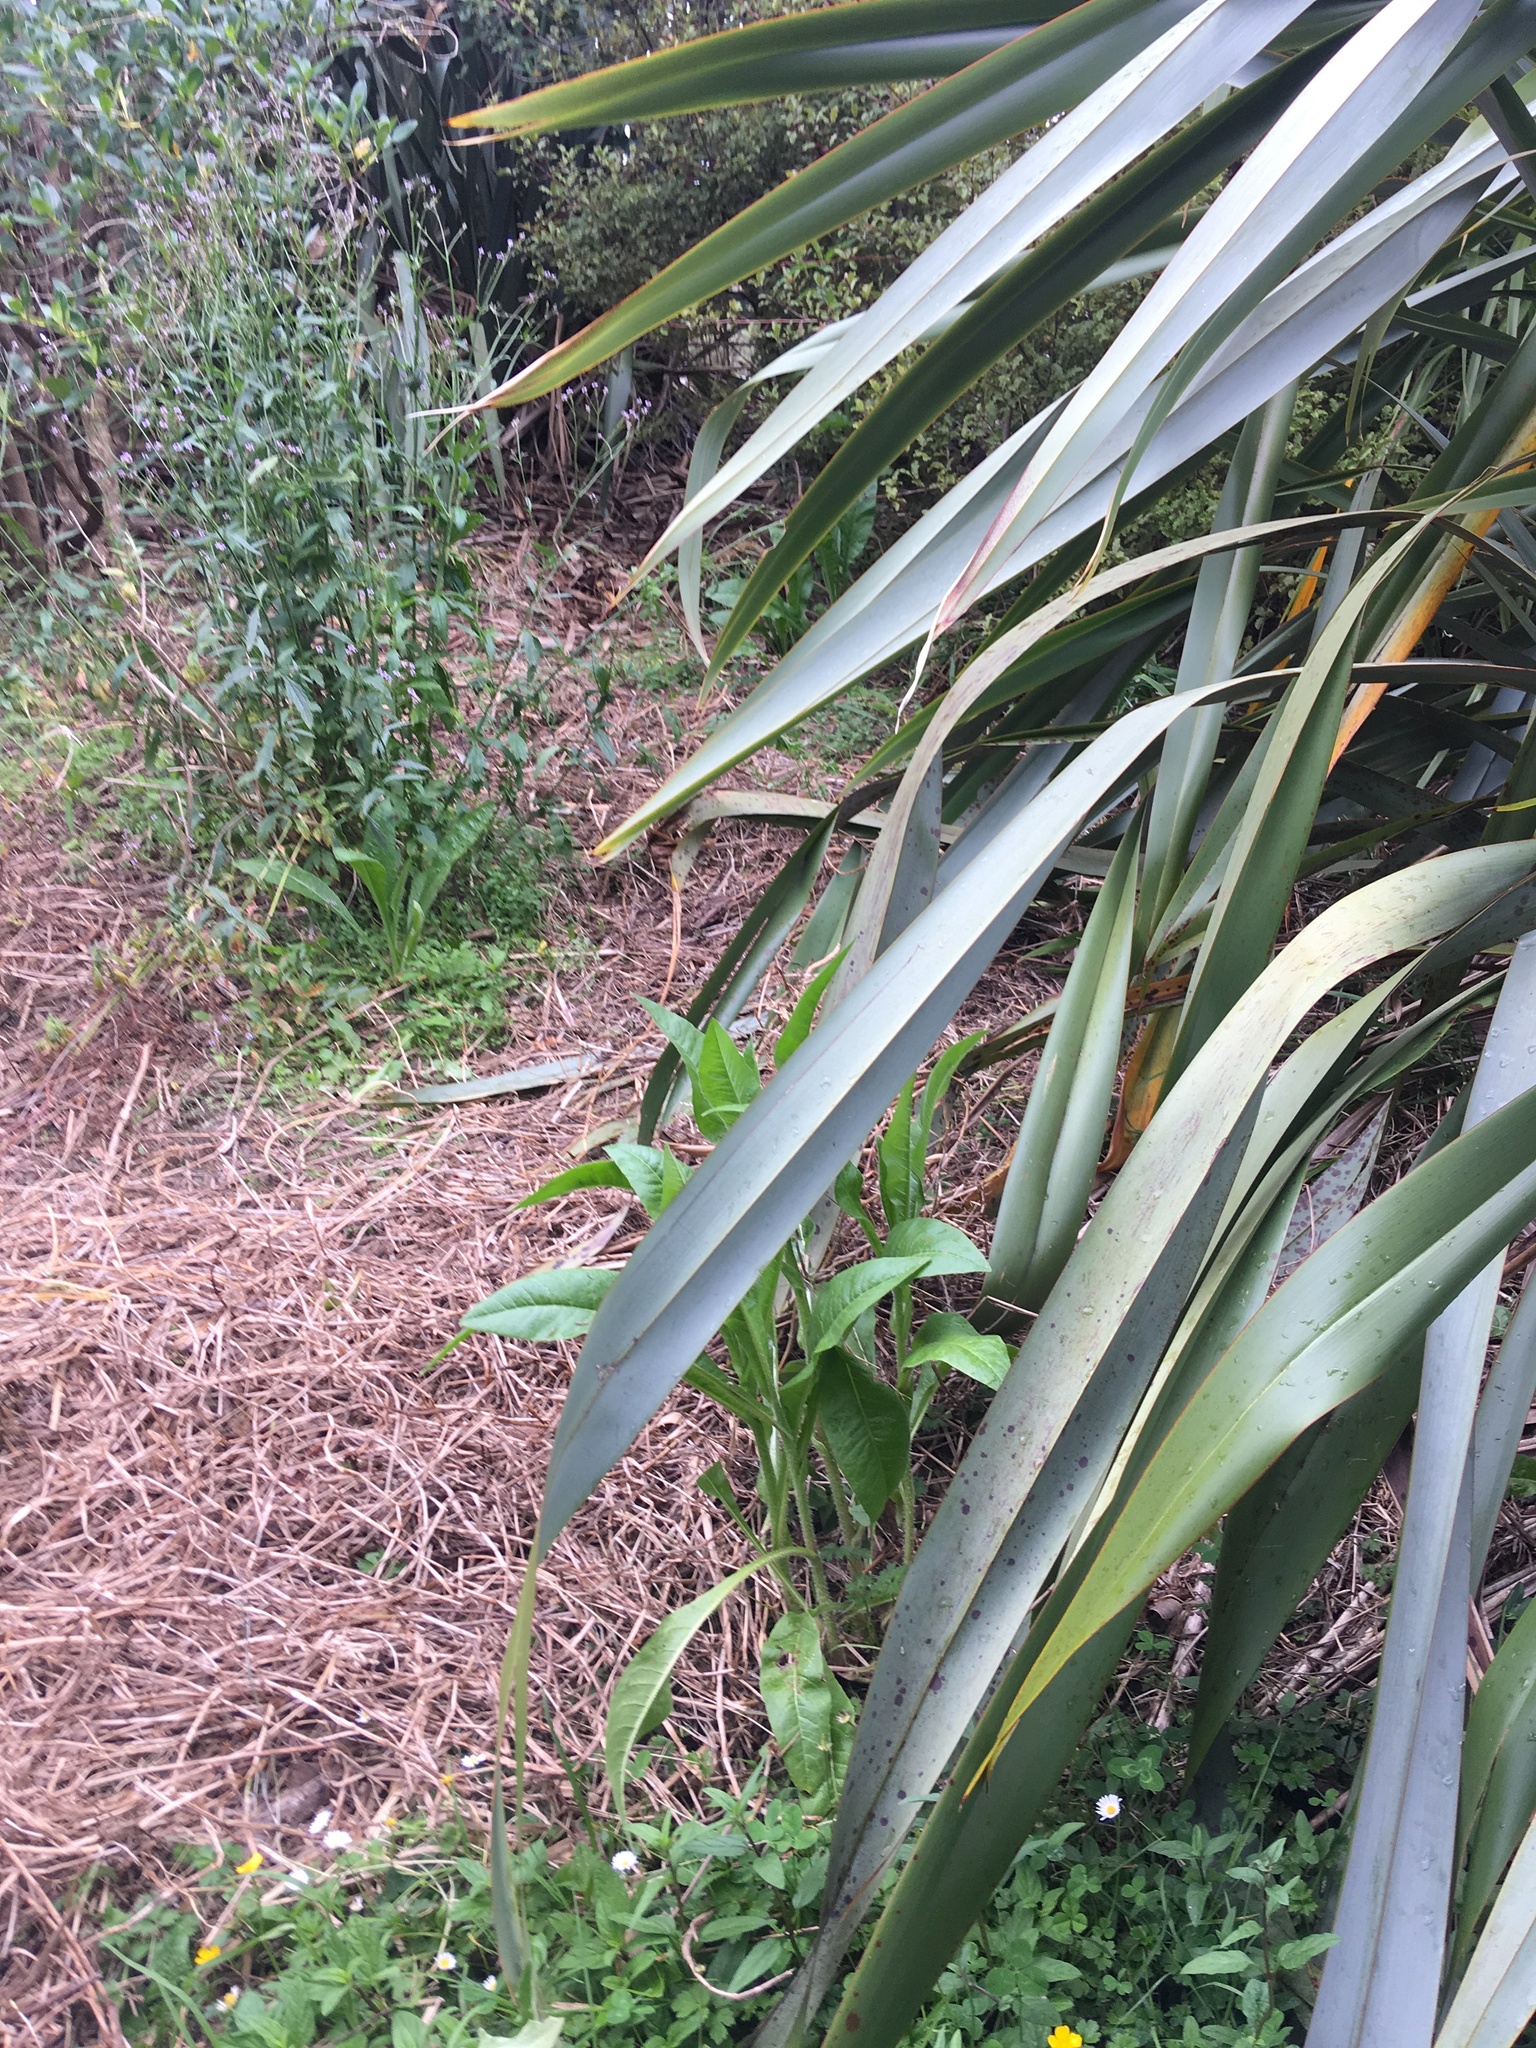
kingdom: Plantae
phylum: Tracheophyta
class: Magnoliopsida
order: Lamiales
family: Verbenaceae
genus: Verbena
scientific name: Verbena litoralis
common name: Seashore vervain
